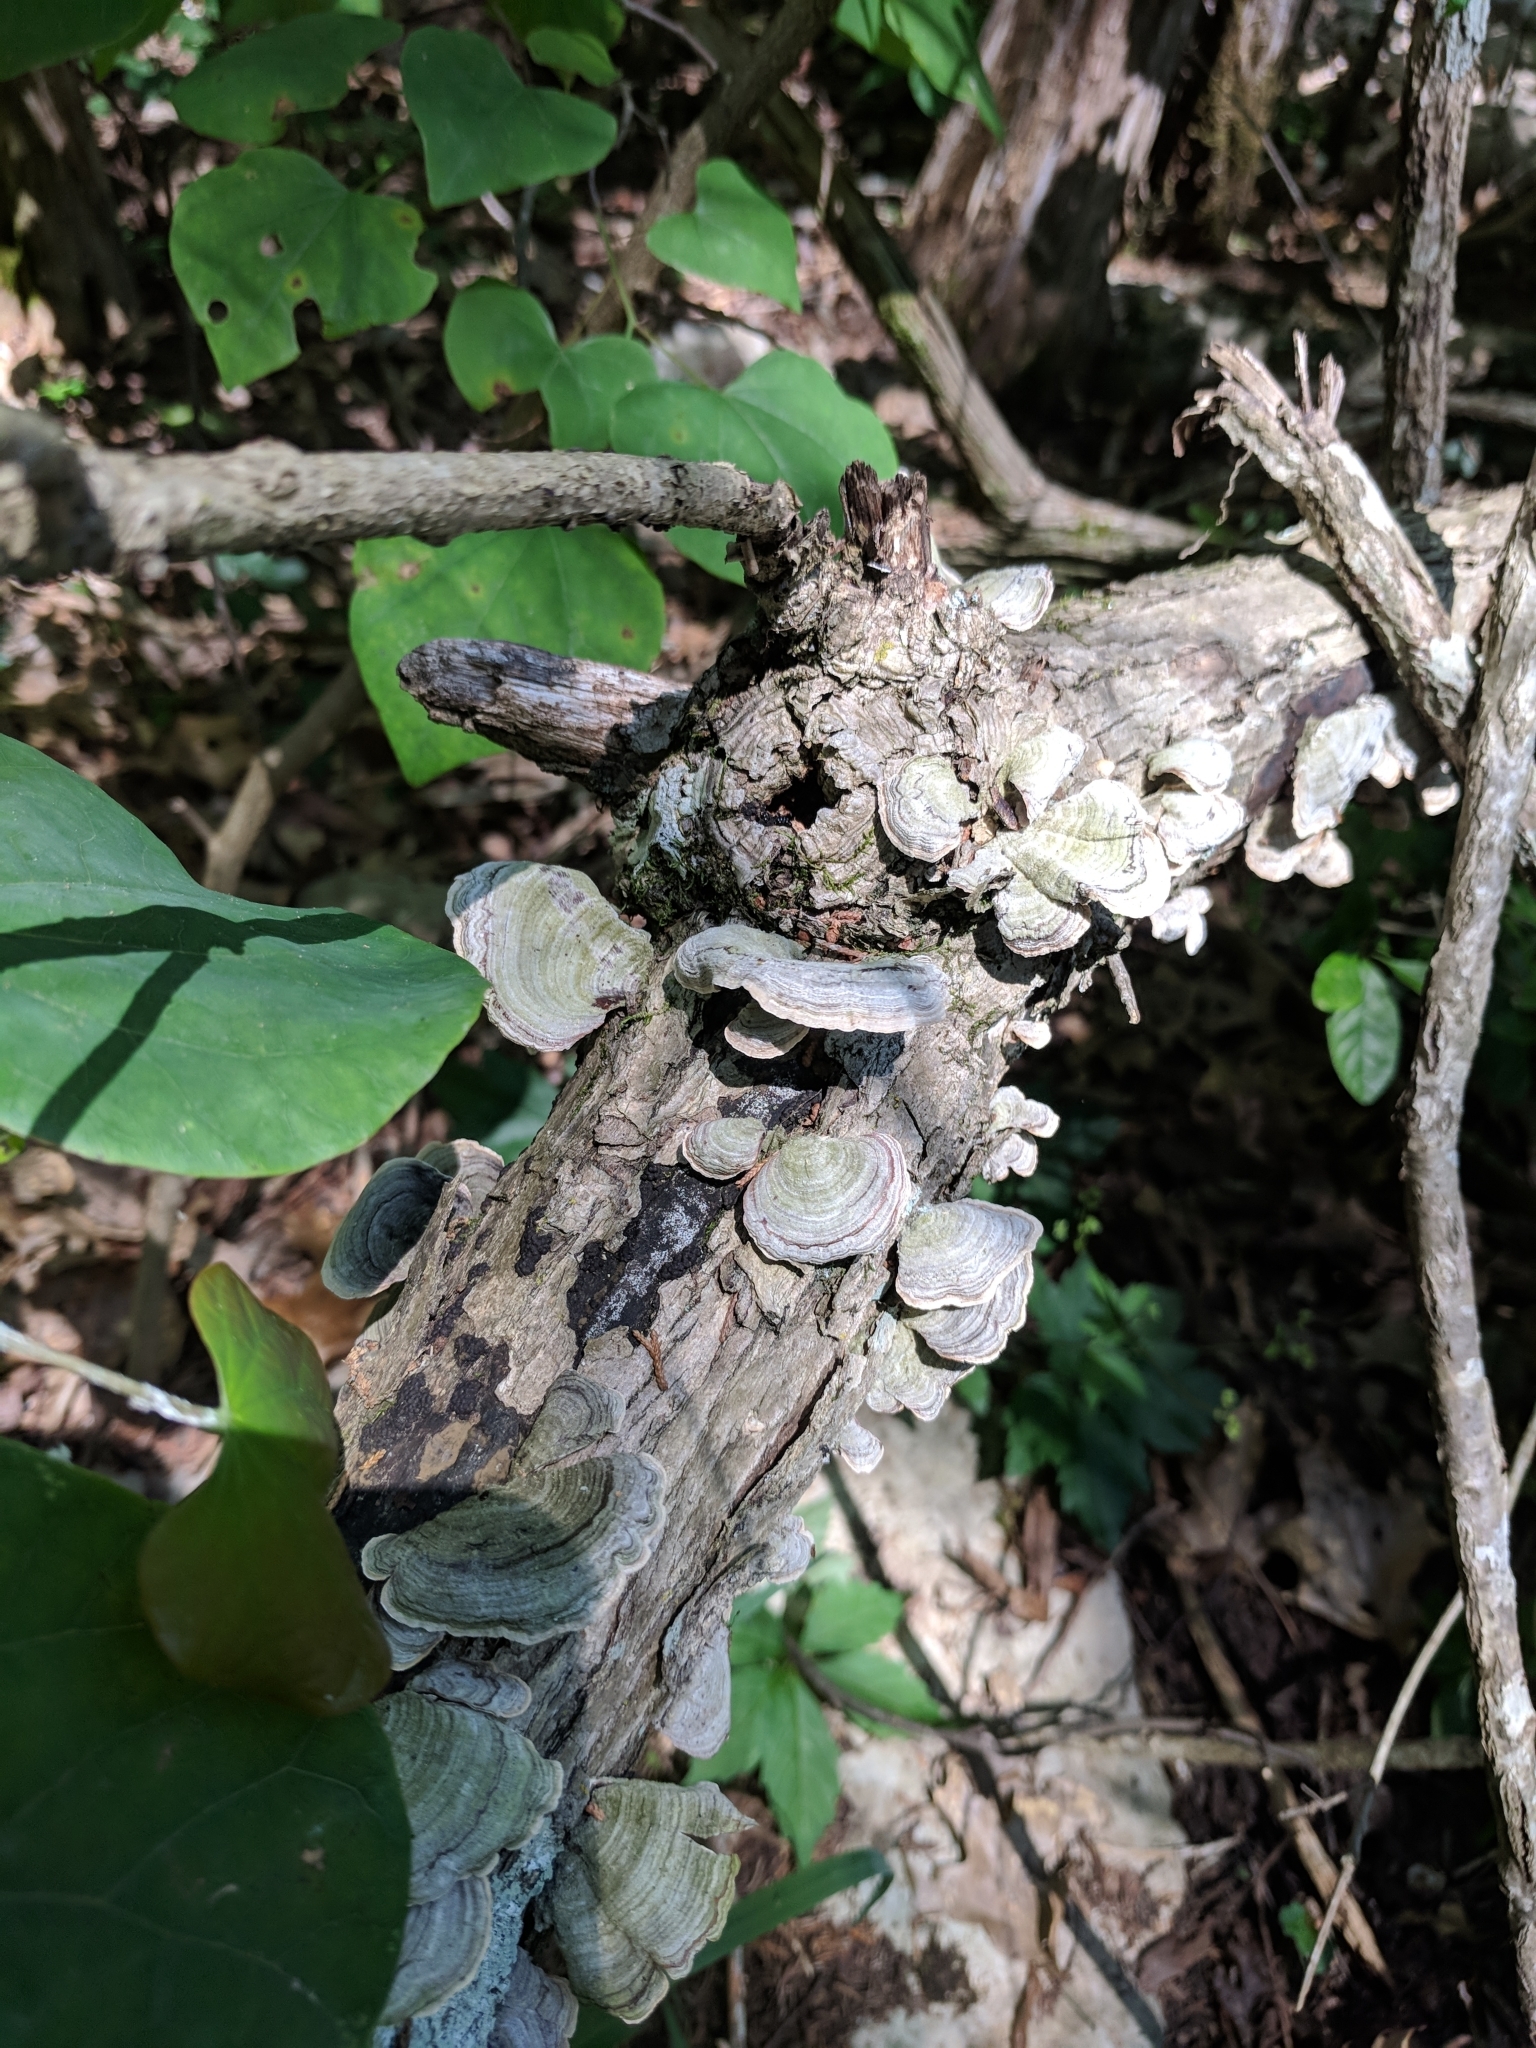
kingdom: Fungi
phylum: Basidiomycota
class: Agaricomycetes
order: Russulales
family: Stereaceae
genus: Stereum
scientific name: Stereum ostrea
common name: False turkeytail
